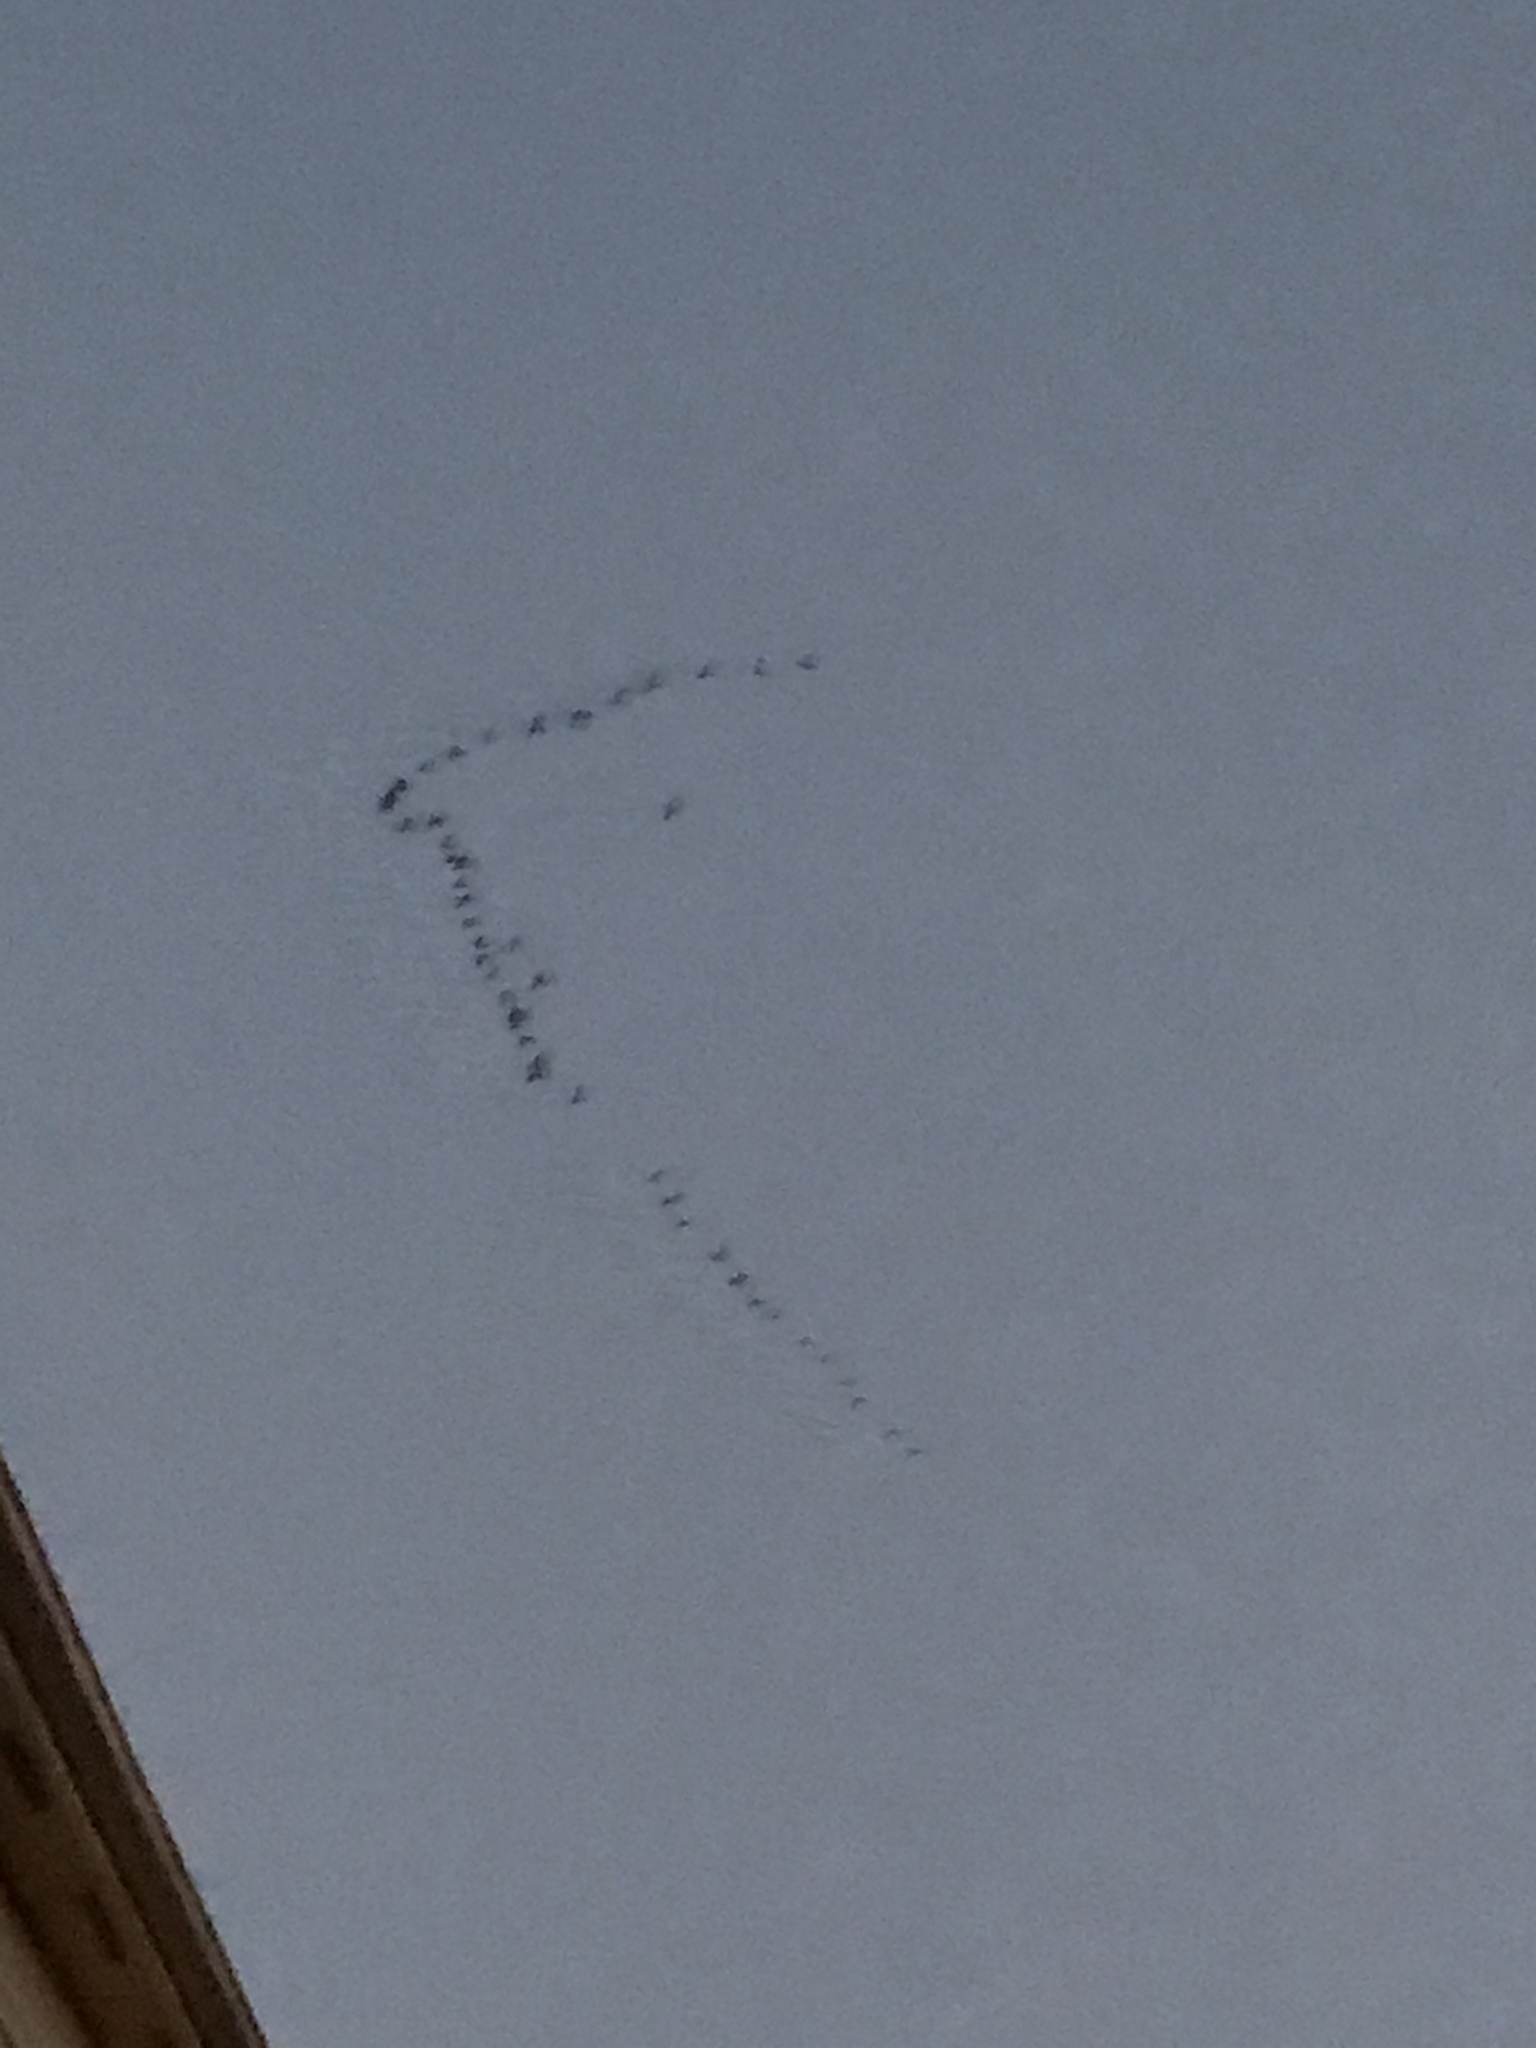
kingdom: Animalia
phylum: Chordata
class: Aves
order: Anseriformes
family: Anatidae
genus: Branta
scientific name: Branta canadensis
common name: Canada goose
